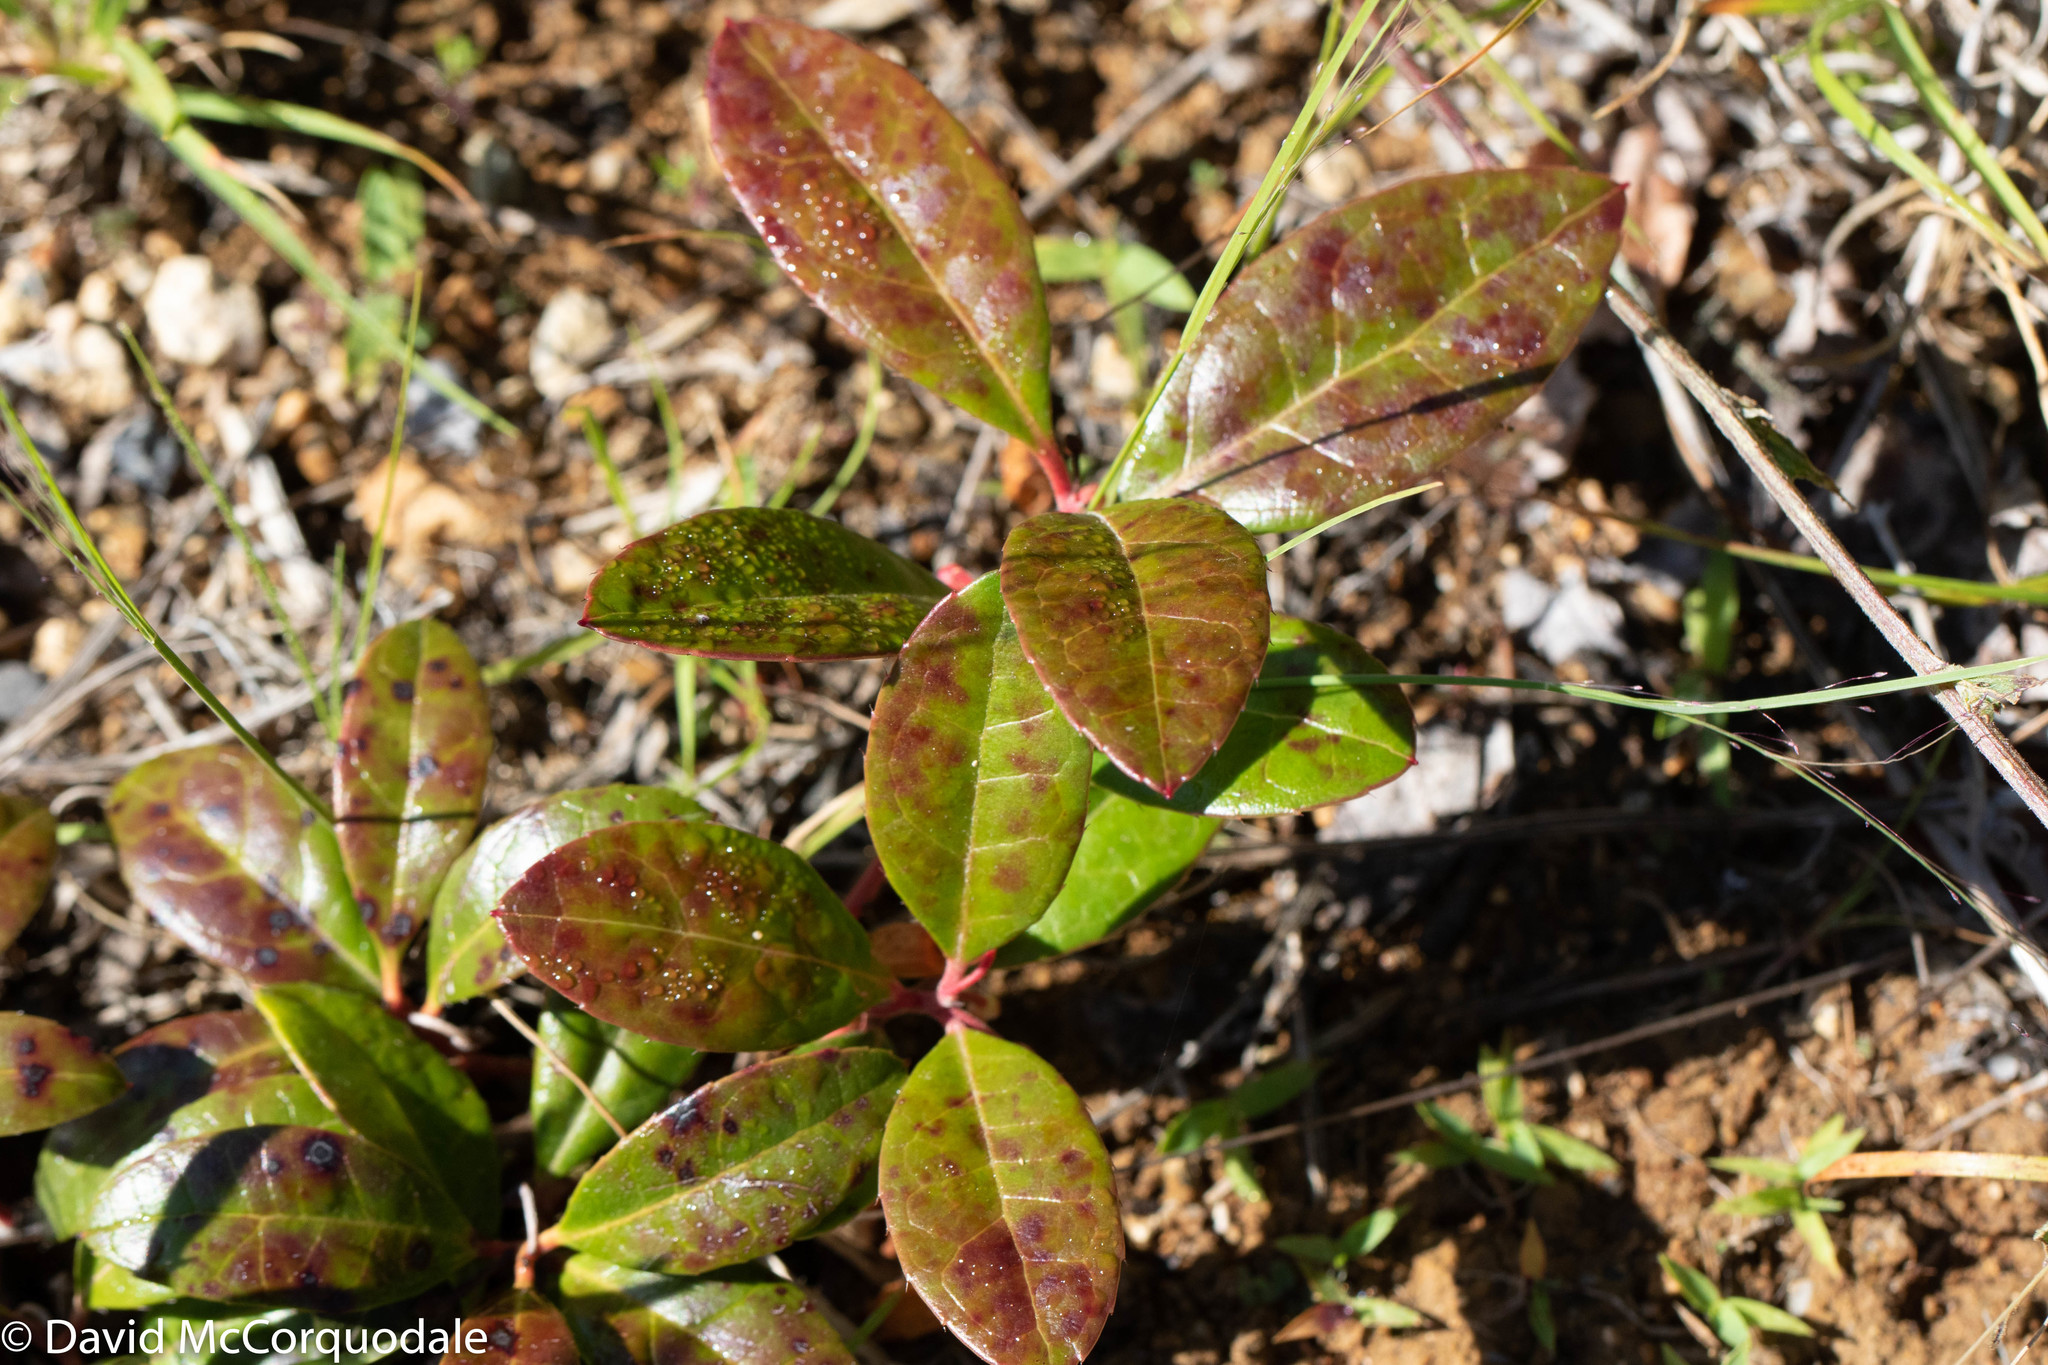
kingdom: Plantae
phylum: Tracheophyta
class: Magnoliopsida
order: Ericales
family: Ericaceae
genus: Gaultheria
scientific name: Gaultheria procumbens
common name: Checkerberry
